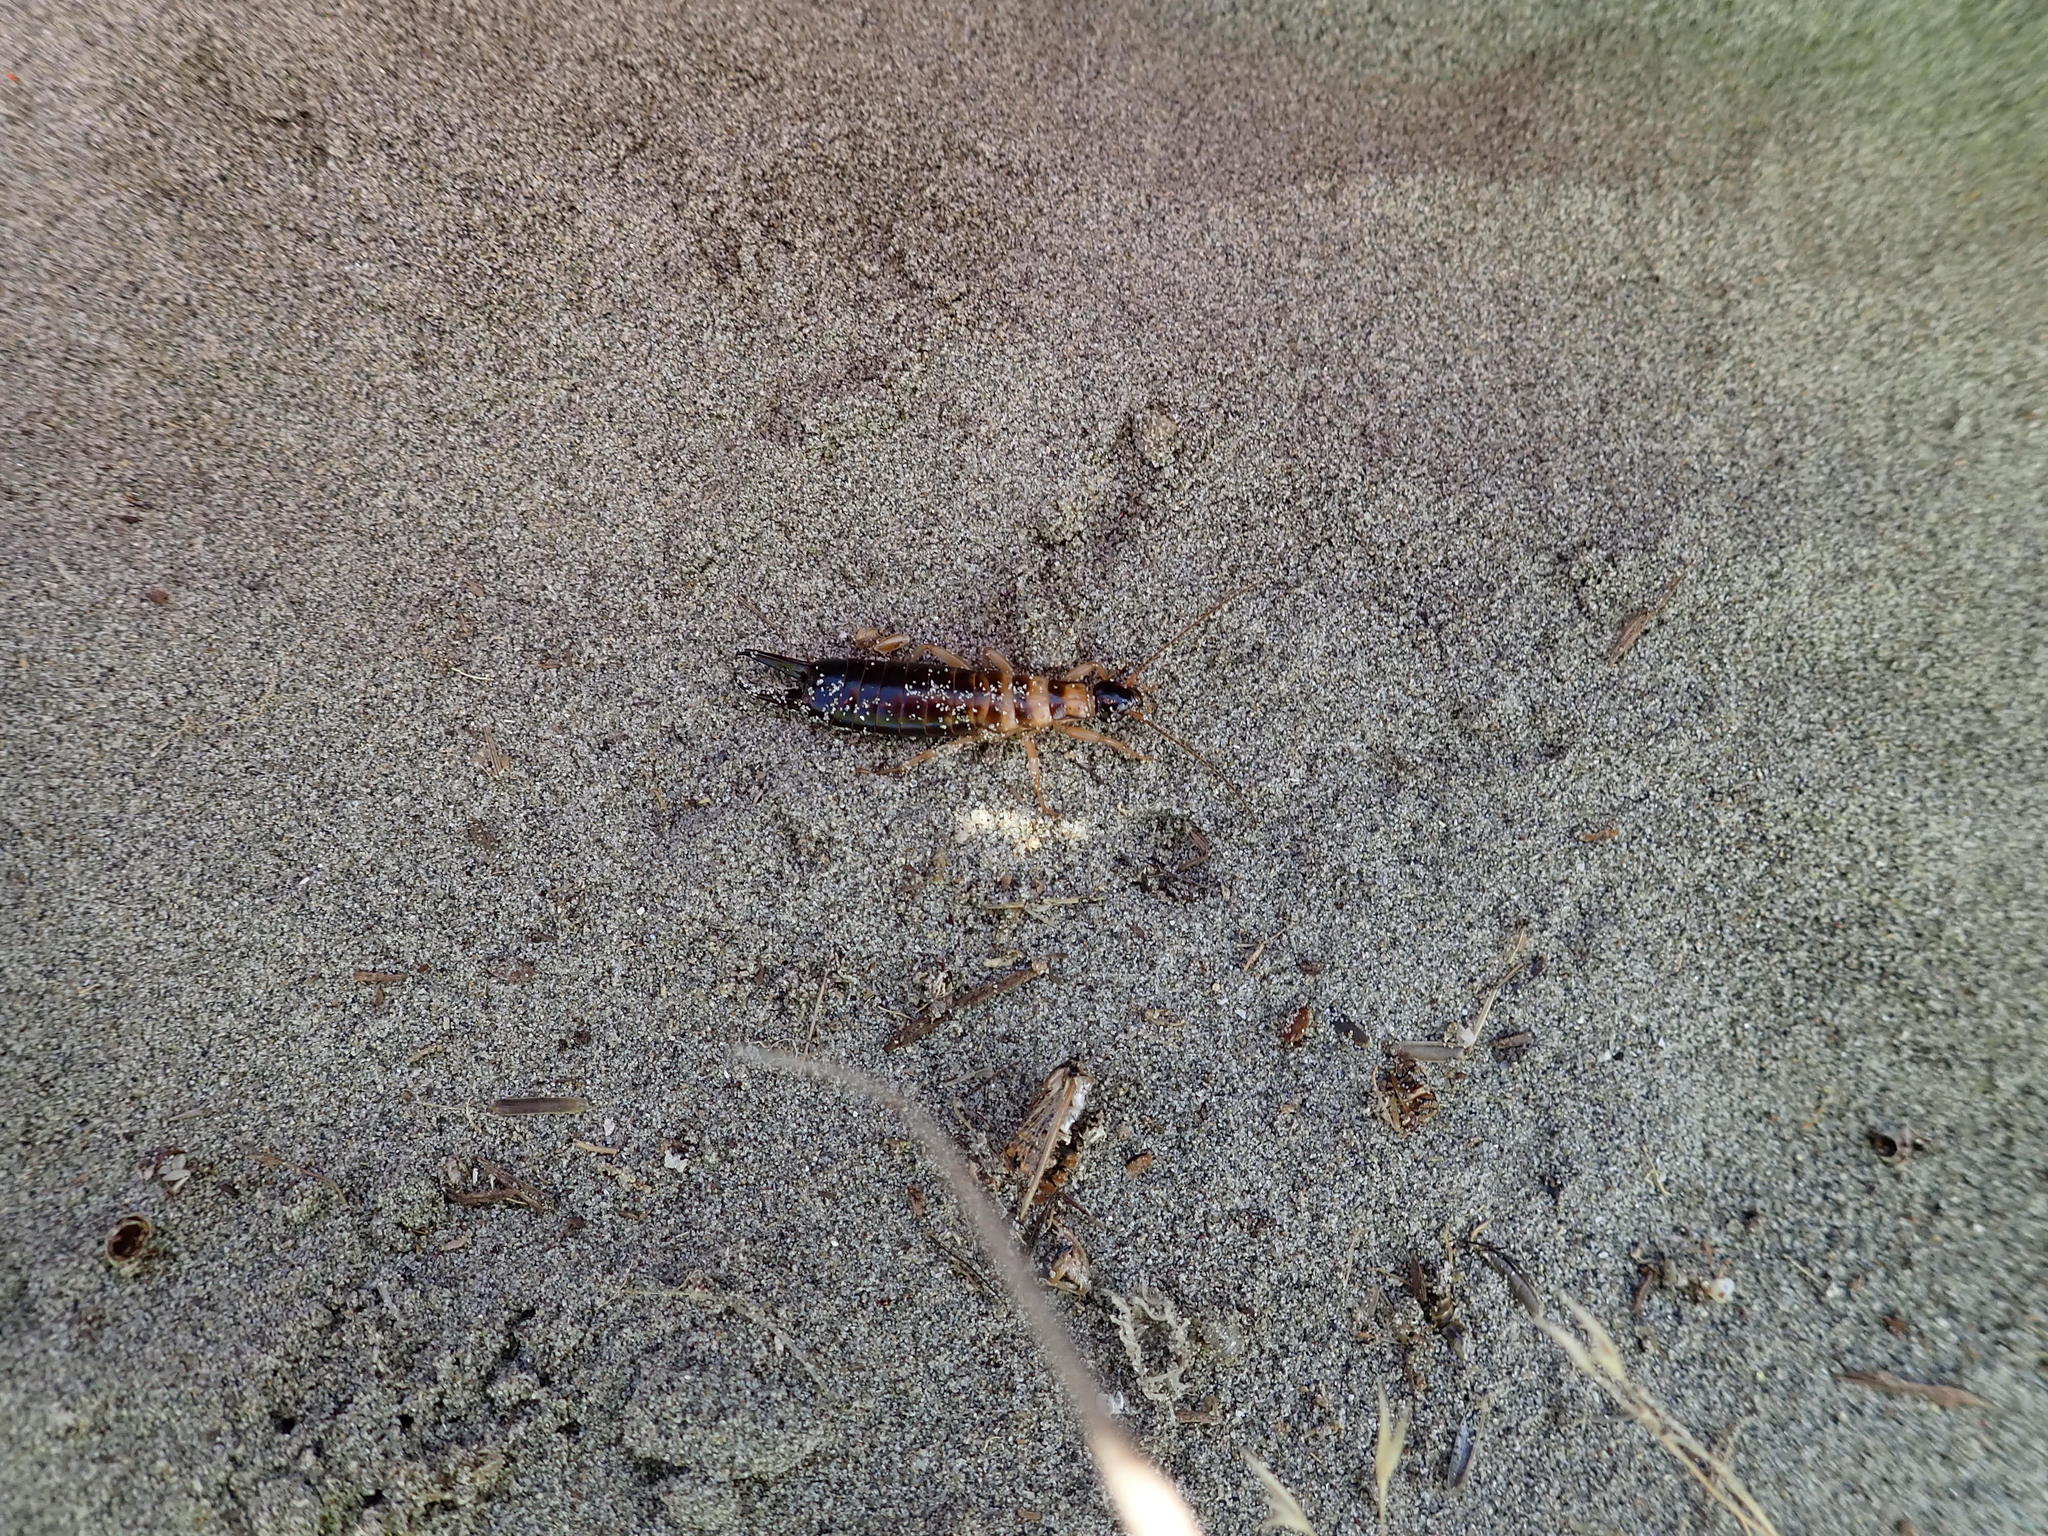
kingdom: Animalia
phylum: Arthropoda
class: Insecta
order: Dermaptera
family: Anisolabididae
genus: Anisolabis
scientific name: Anisolabis littorea
